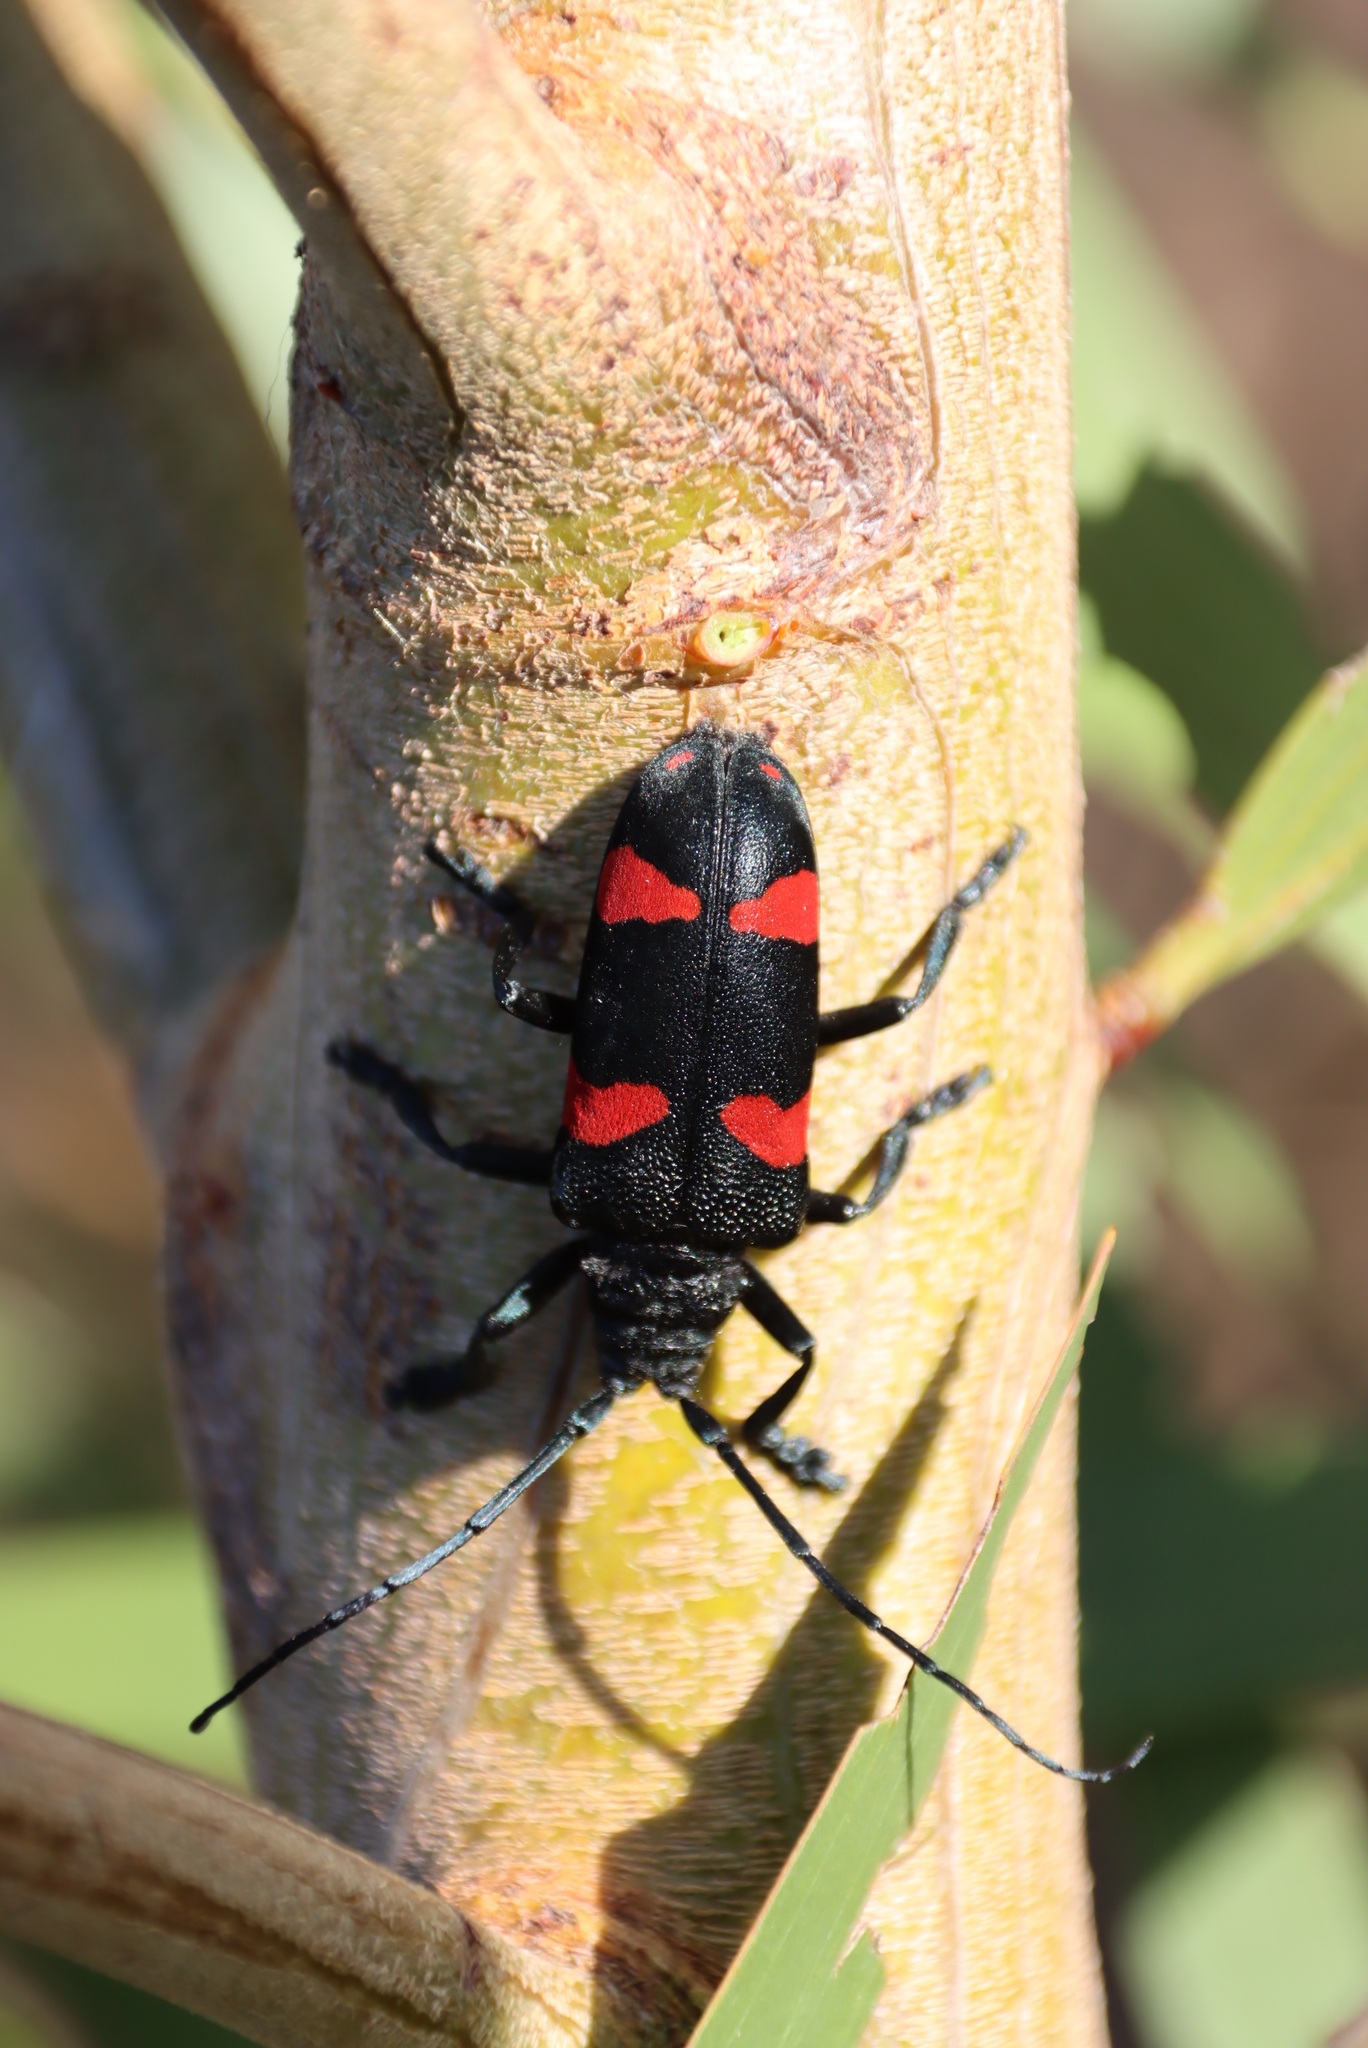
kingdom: Animalia
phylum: Arthropoda
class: Insecta
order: Coleoptera
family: Cerambycidae
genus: Ceroplesis
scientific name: Ceroplesis aethiops
